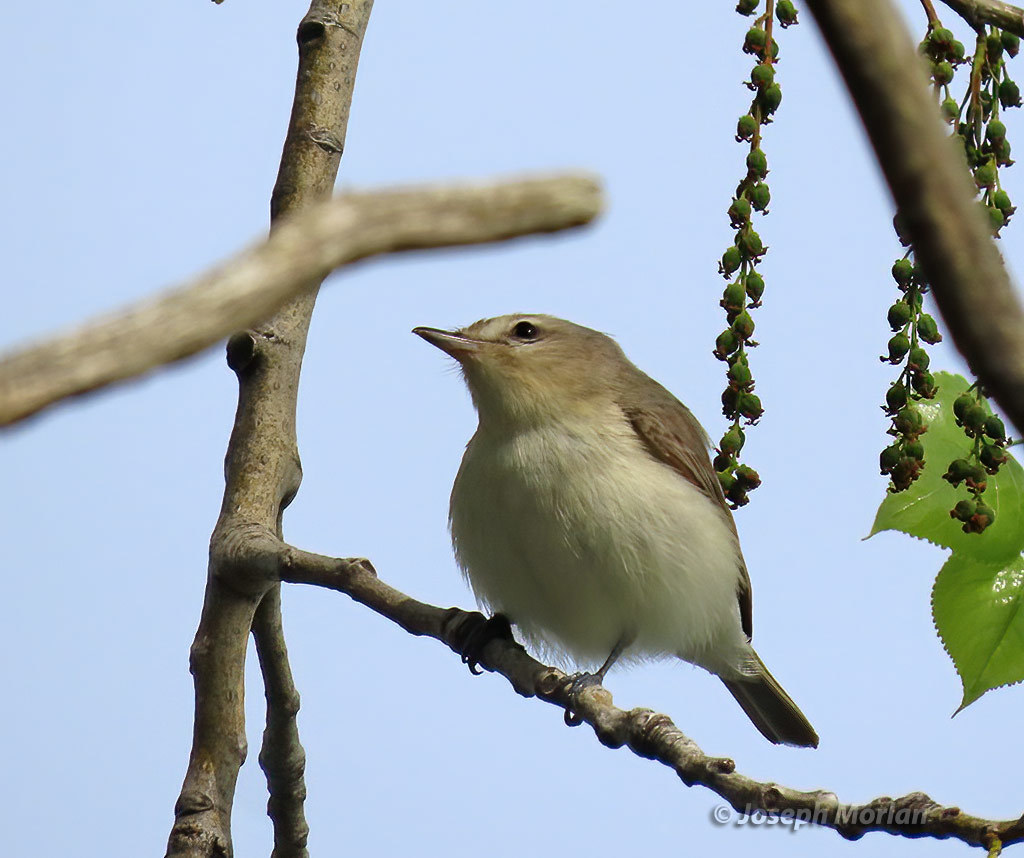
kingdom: Animalia
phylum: Chordata
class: Aves
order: Passeriformes
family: Vireonidae
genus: Vireo
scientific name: Vireo gilvus
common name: Warbling vireo
